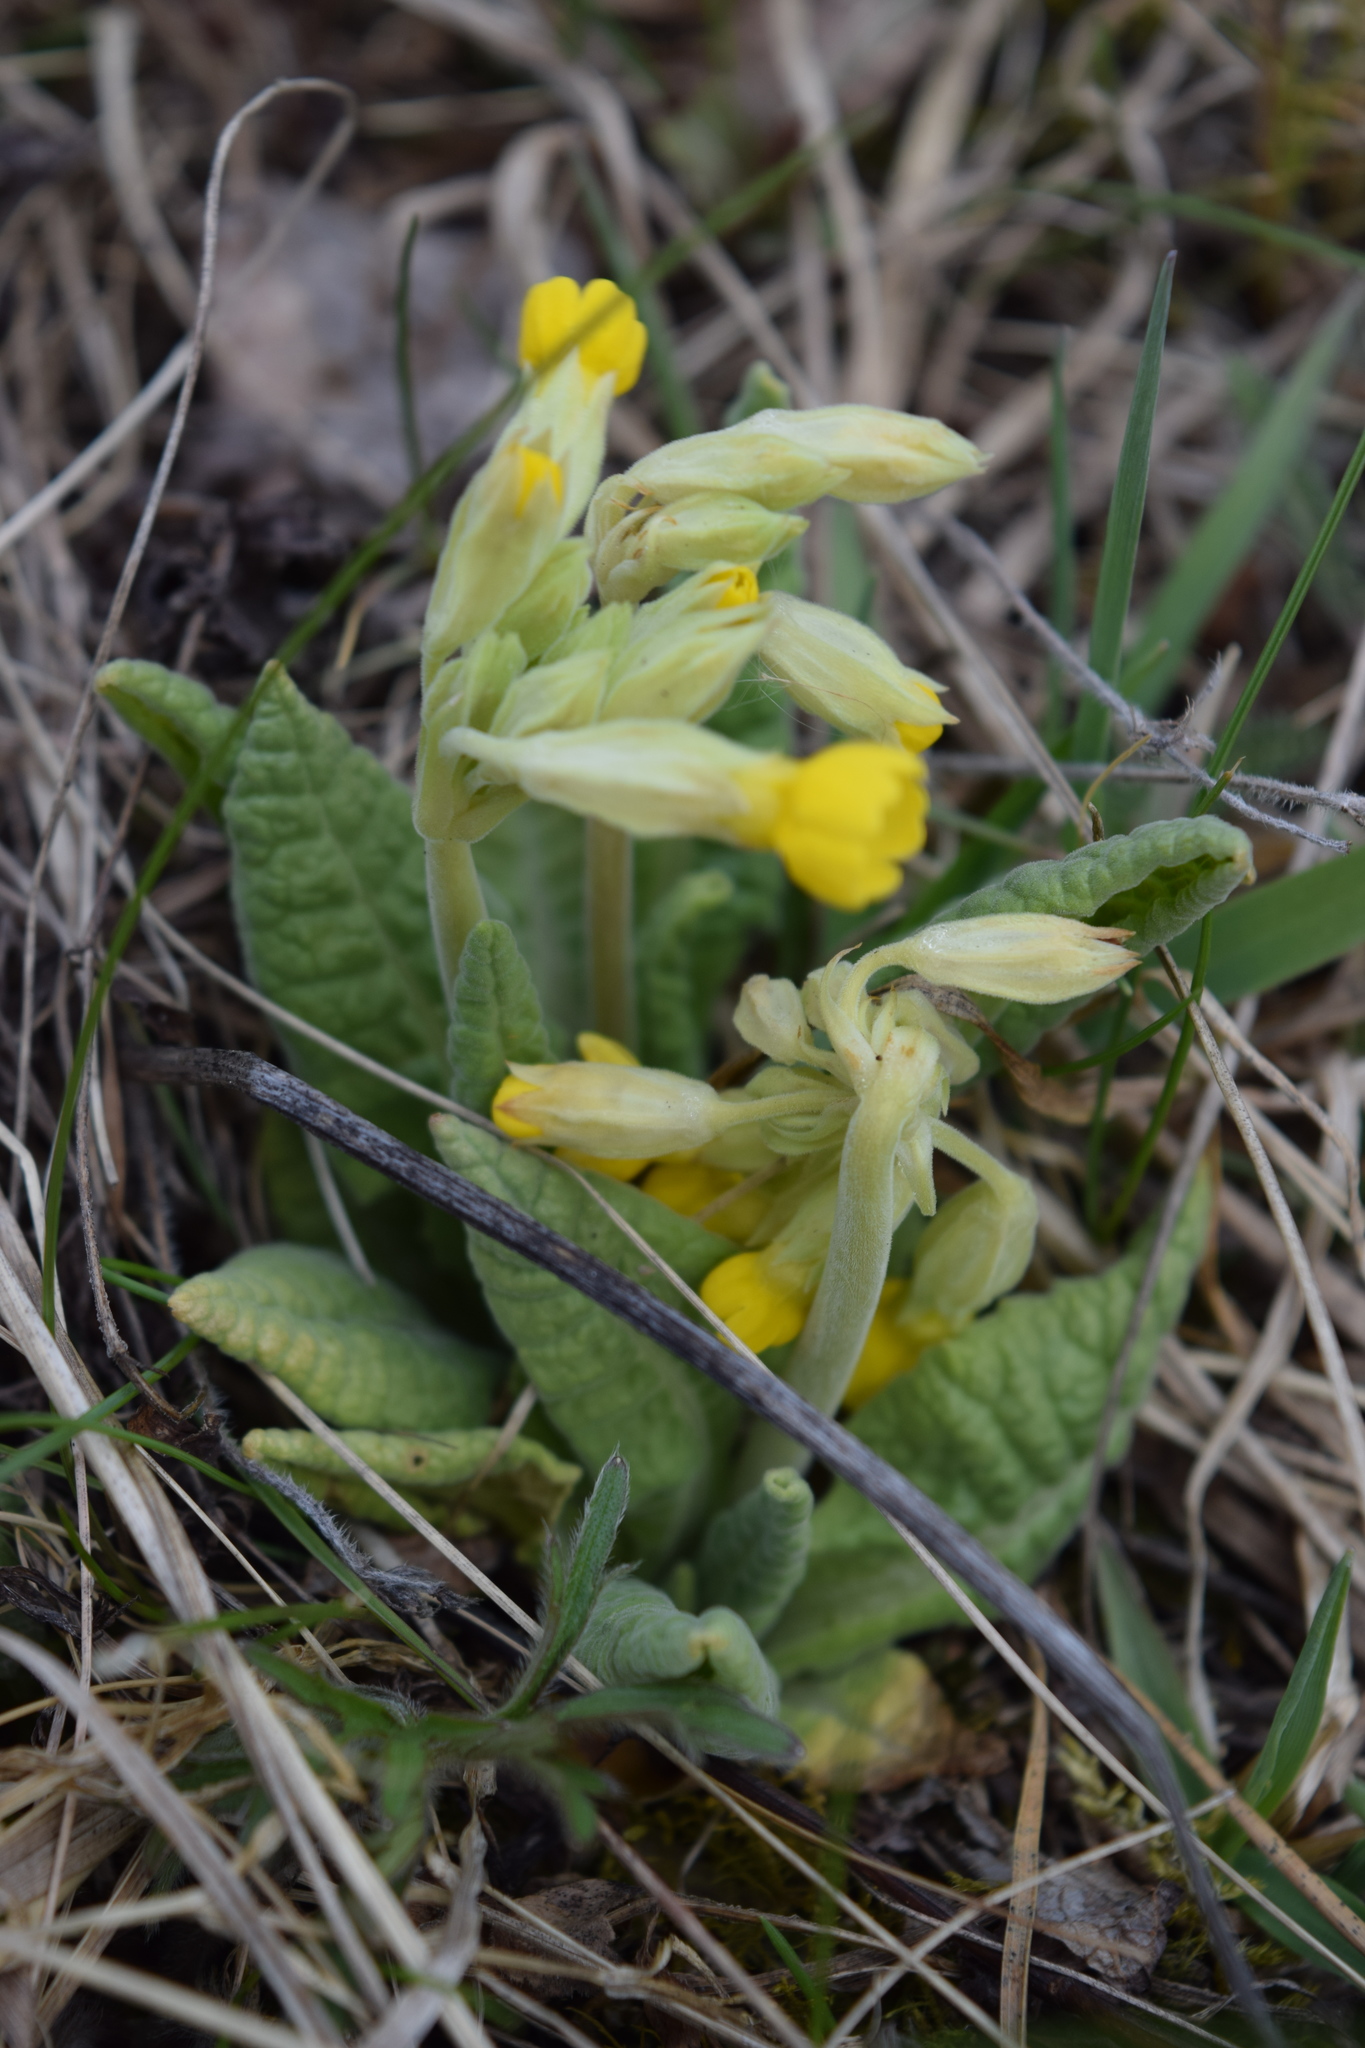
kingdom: Plantae
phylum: Tracheophyta
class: Magnoliopsida
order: Ericales
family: Primulaceae
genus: Primula
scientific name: Primula veris
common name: Cowslip
